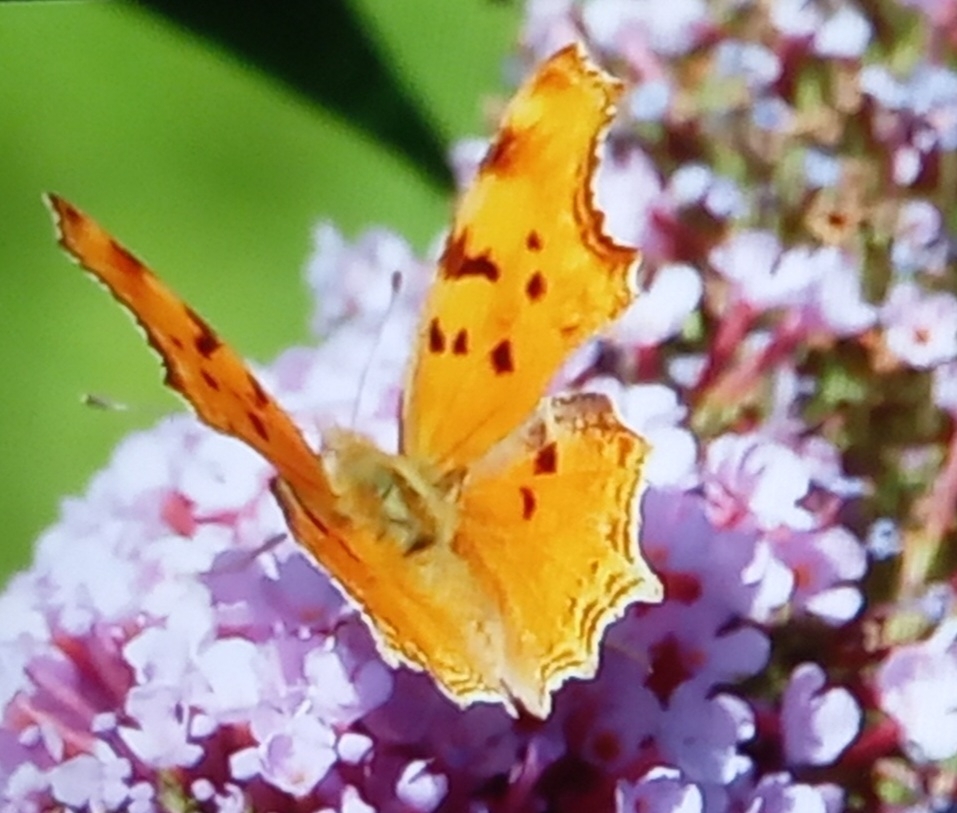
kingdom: Animalia
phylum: Arthropoda
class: Insecta
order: Lepidoptera
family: Nymphalidae
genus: Polygonia
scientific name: Polygonia egea
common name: Southern comma
